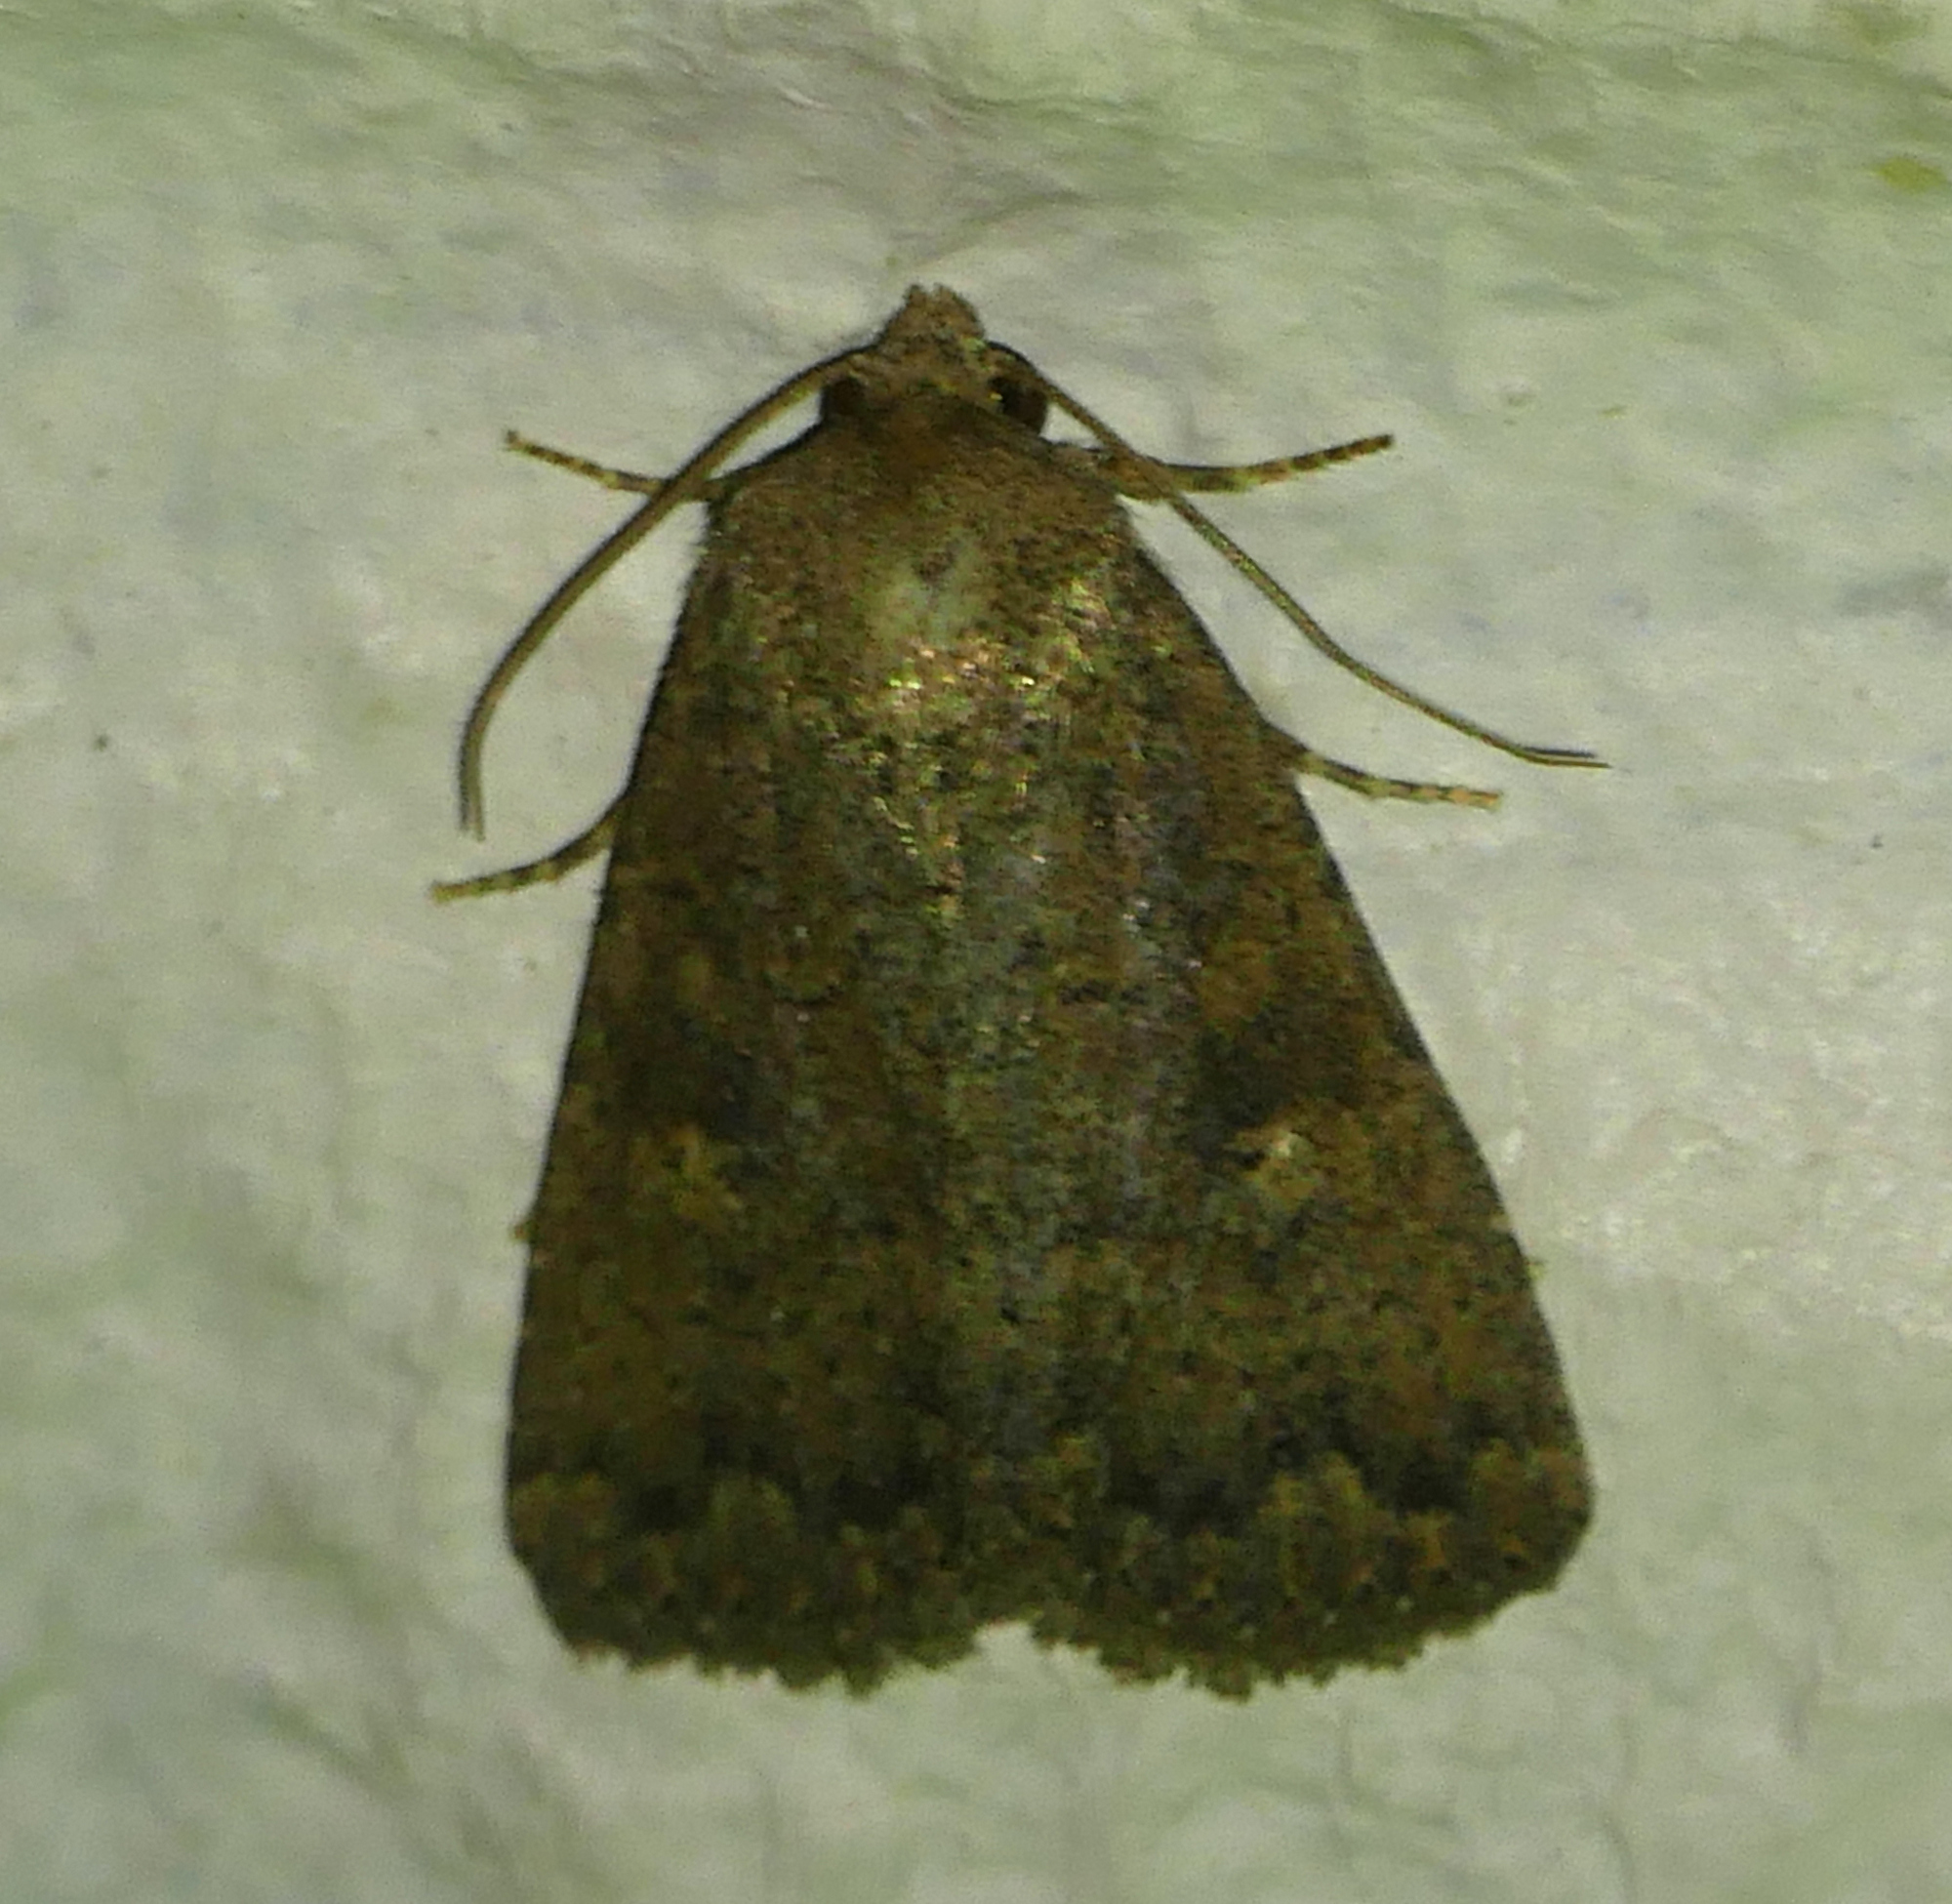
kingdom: Animalia
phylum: Arthropoda
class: Insecta
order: Lepidoptera
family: Noctuidae
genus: Condica
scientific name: Condica sutor
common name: Cobbler moth
